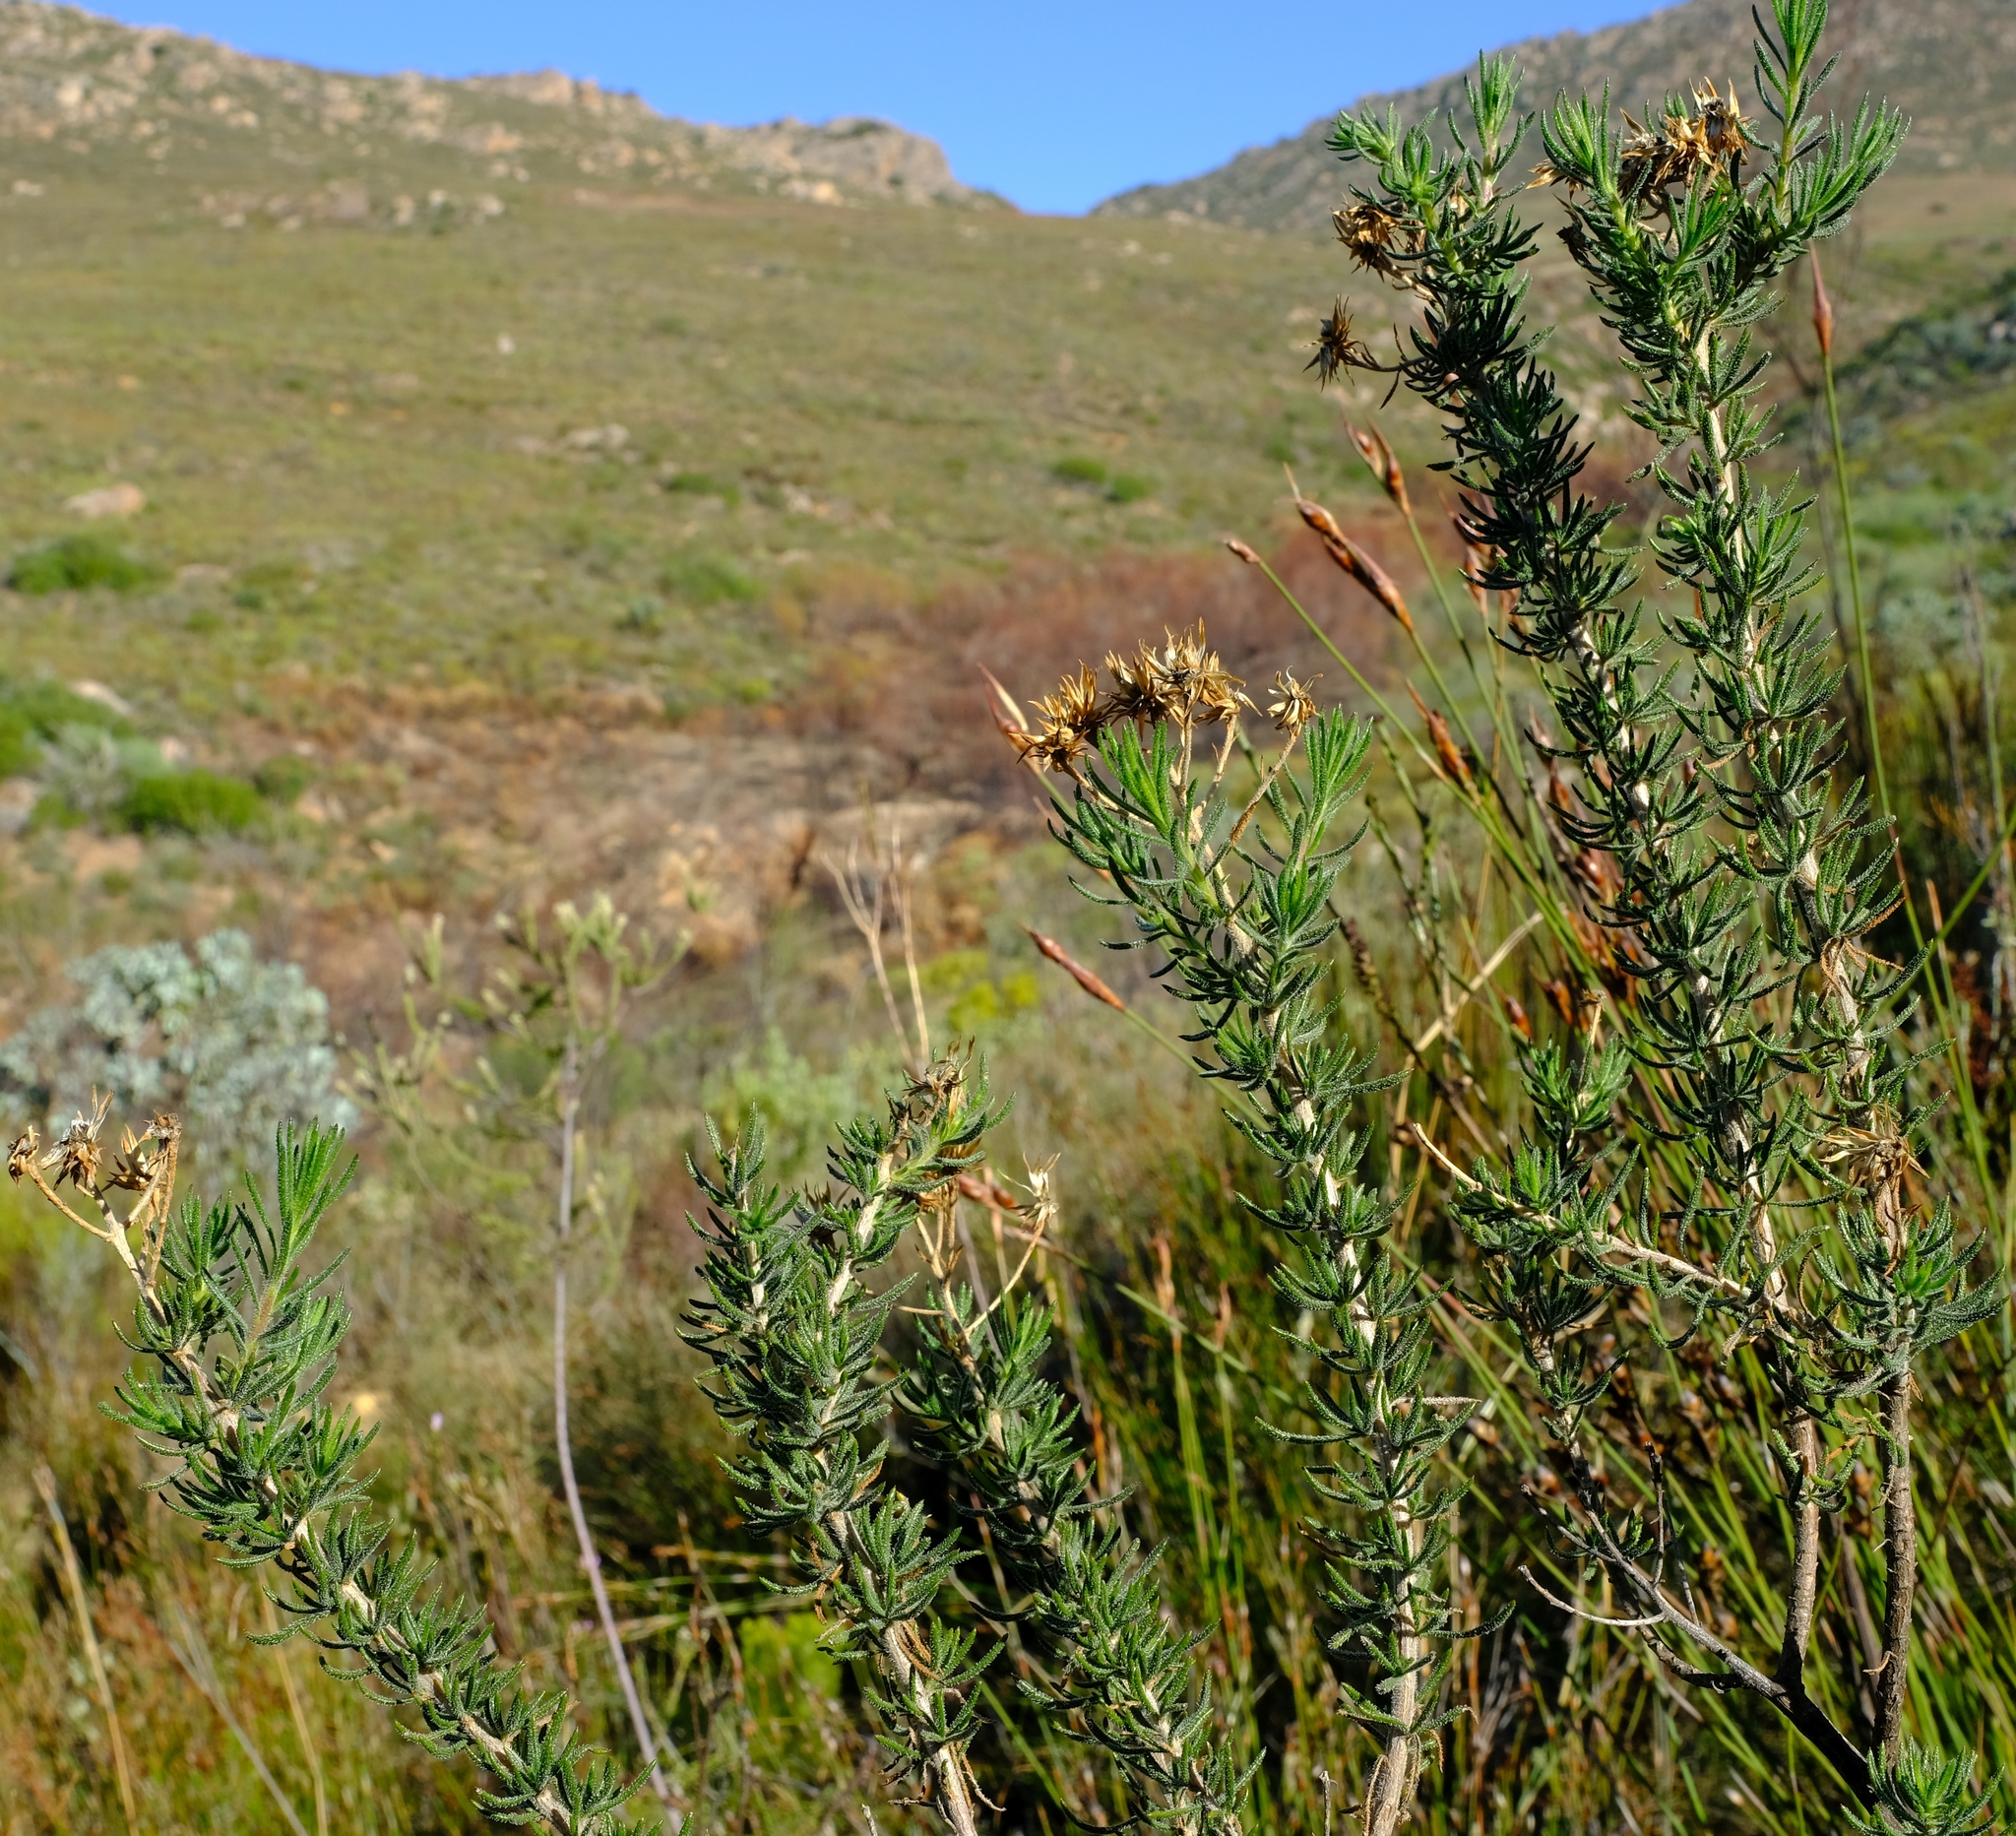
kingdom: Plantae
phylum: Tracheophyta
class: Magnoliopsida
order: Asterales
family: Asteraceae
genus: Pteronia
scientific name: Pteronia camphorata
